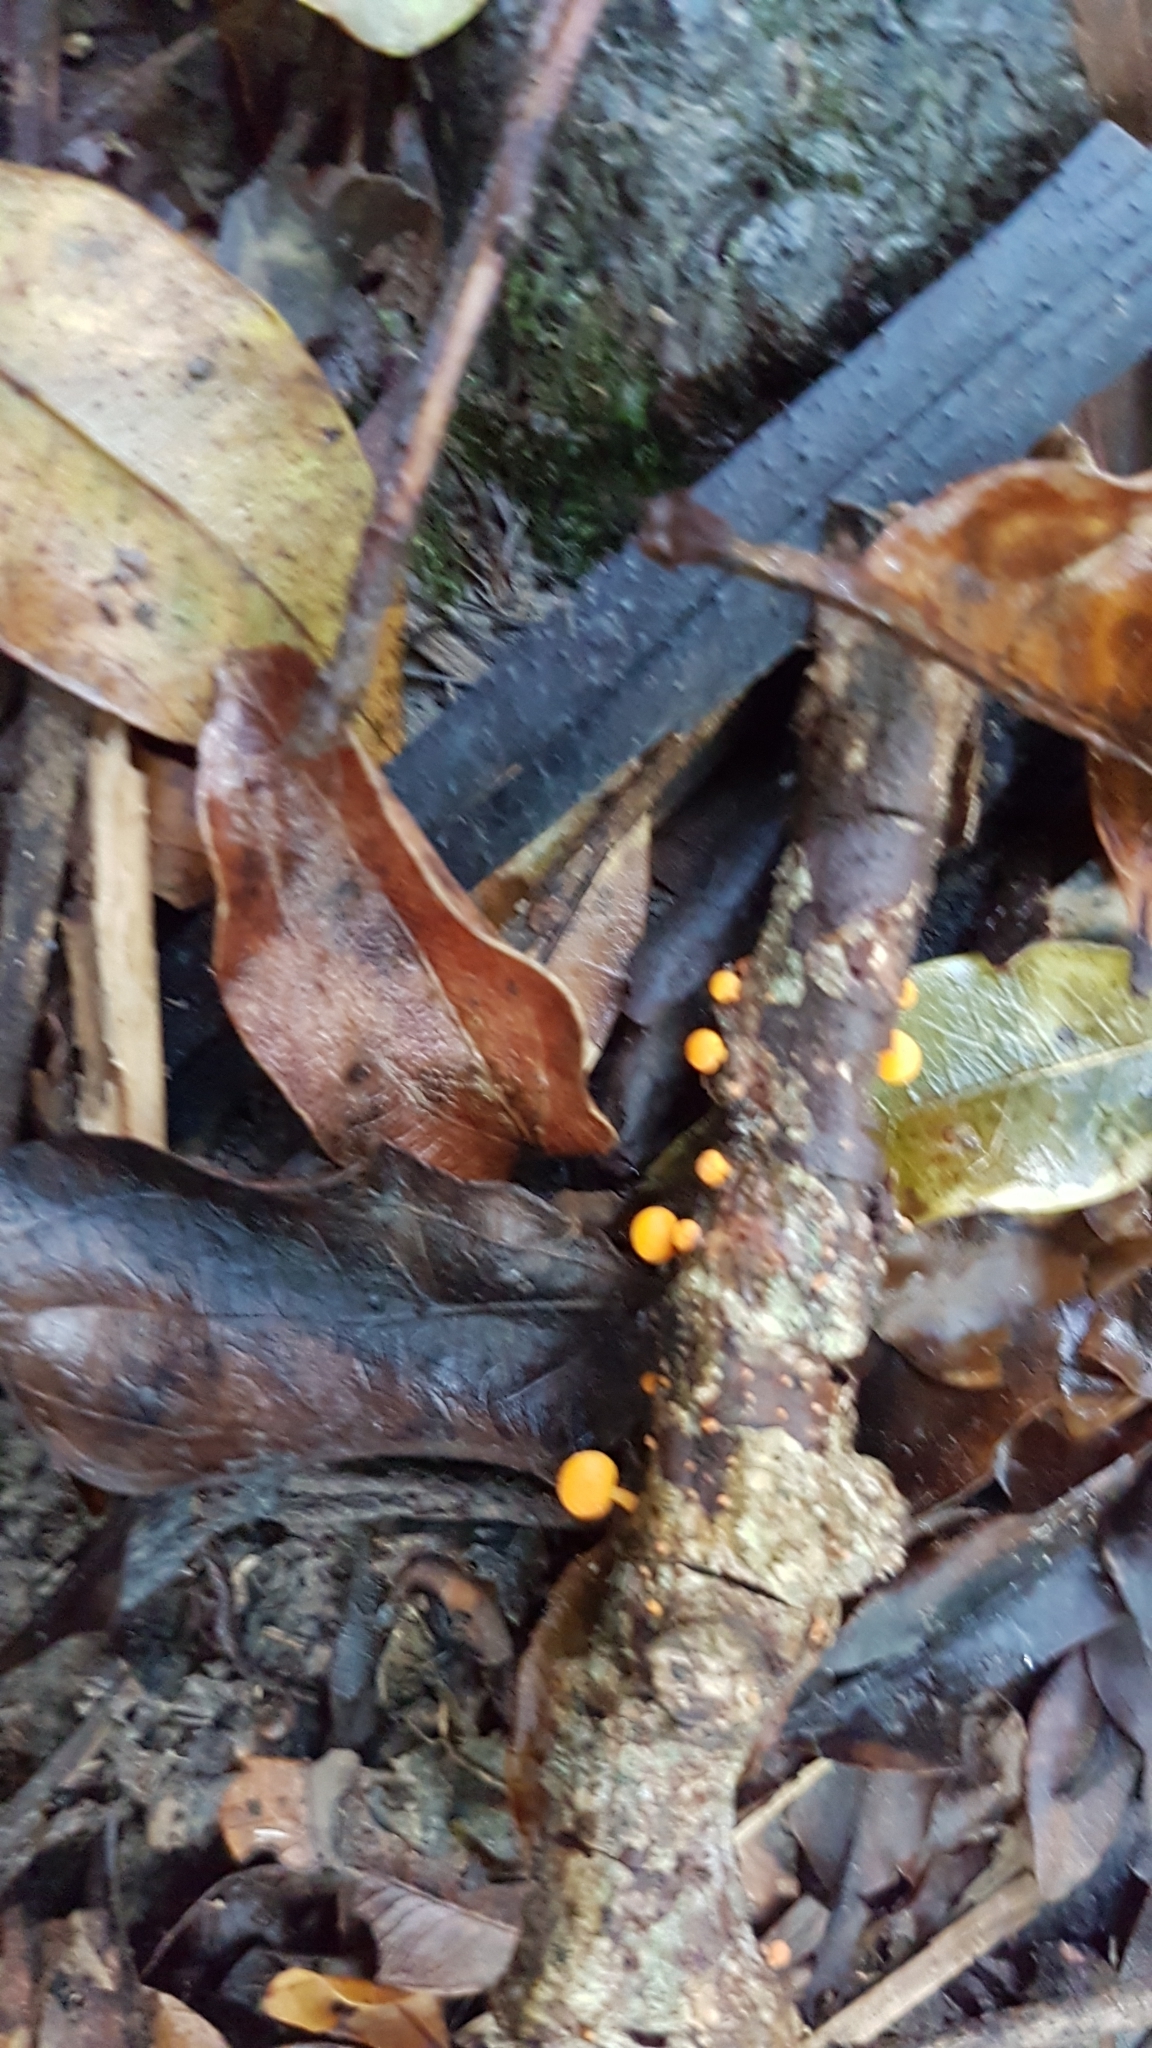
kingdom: Fungi
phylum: Basidiomycota
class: Agaricomycetes
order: Agaricales
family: Mycenaceae
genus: Favolaschia
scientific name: Favolaschia claudopus
